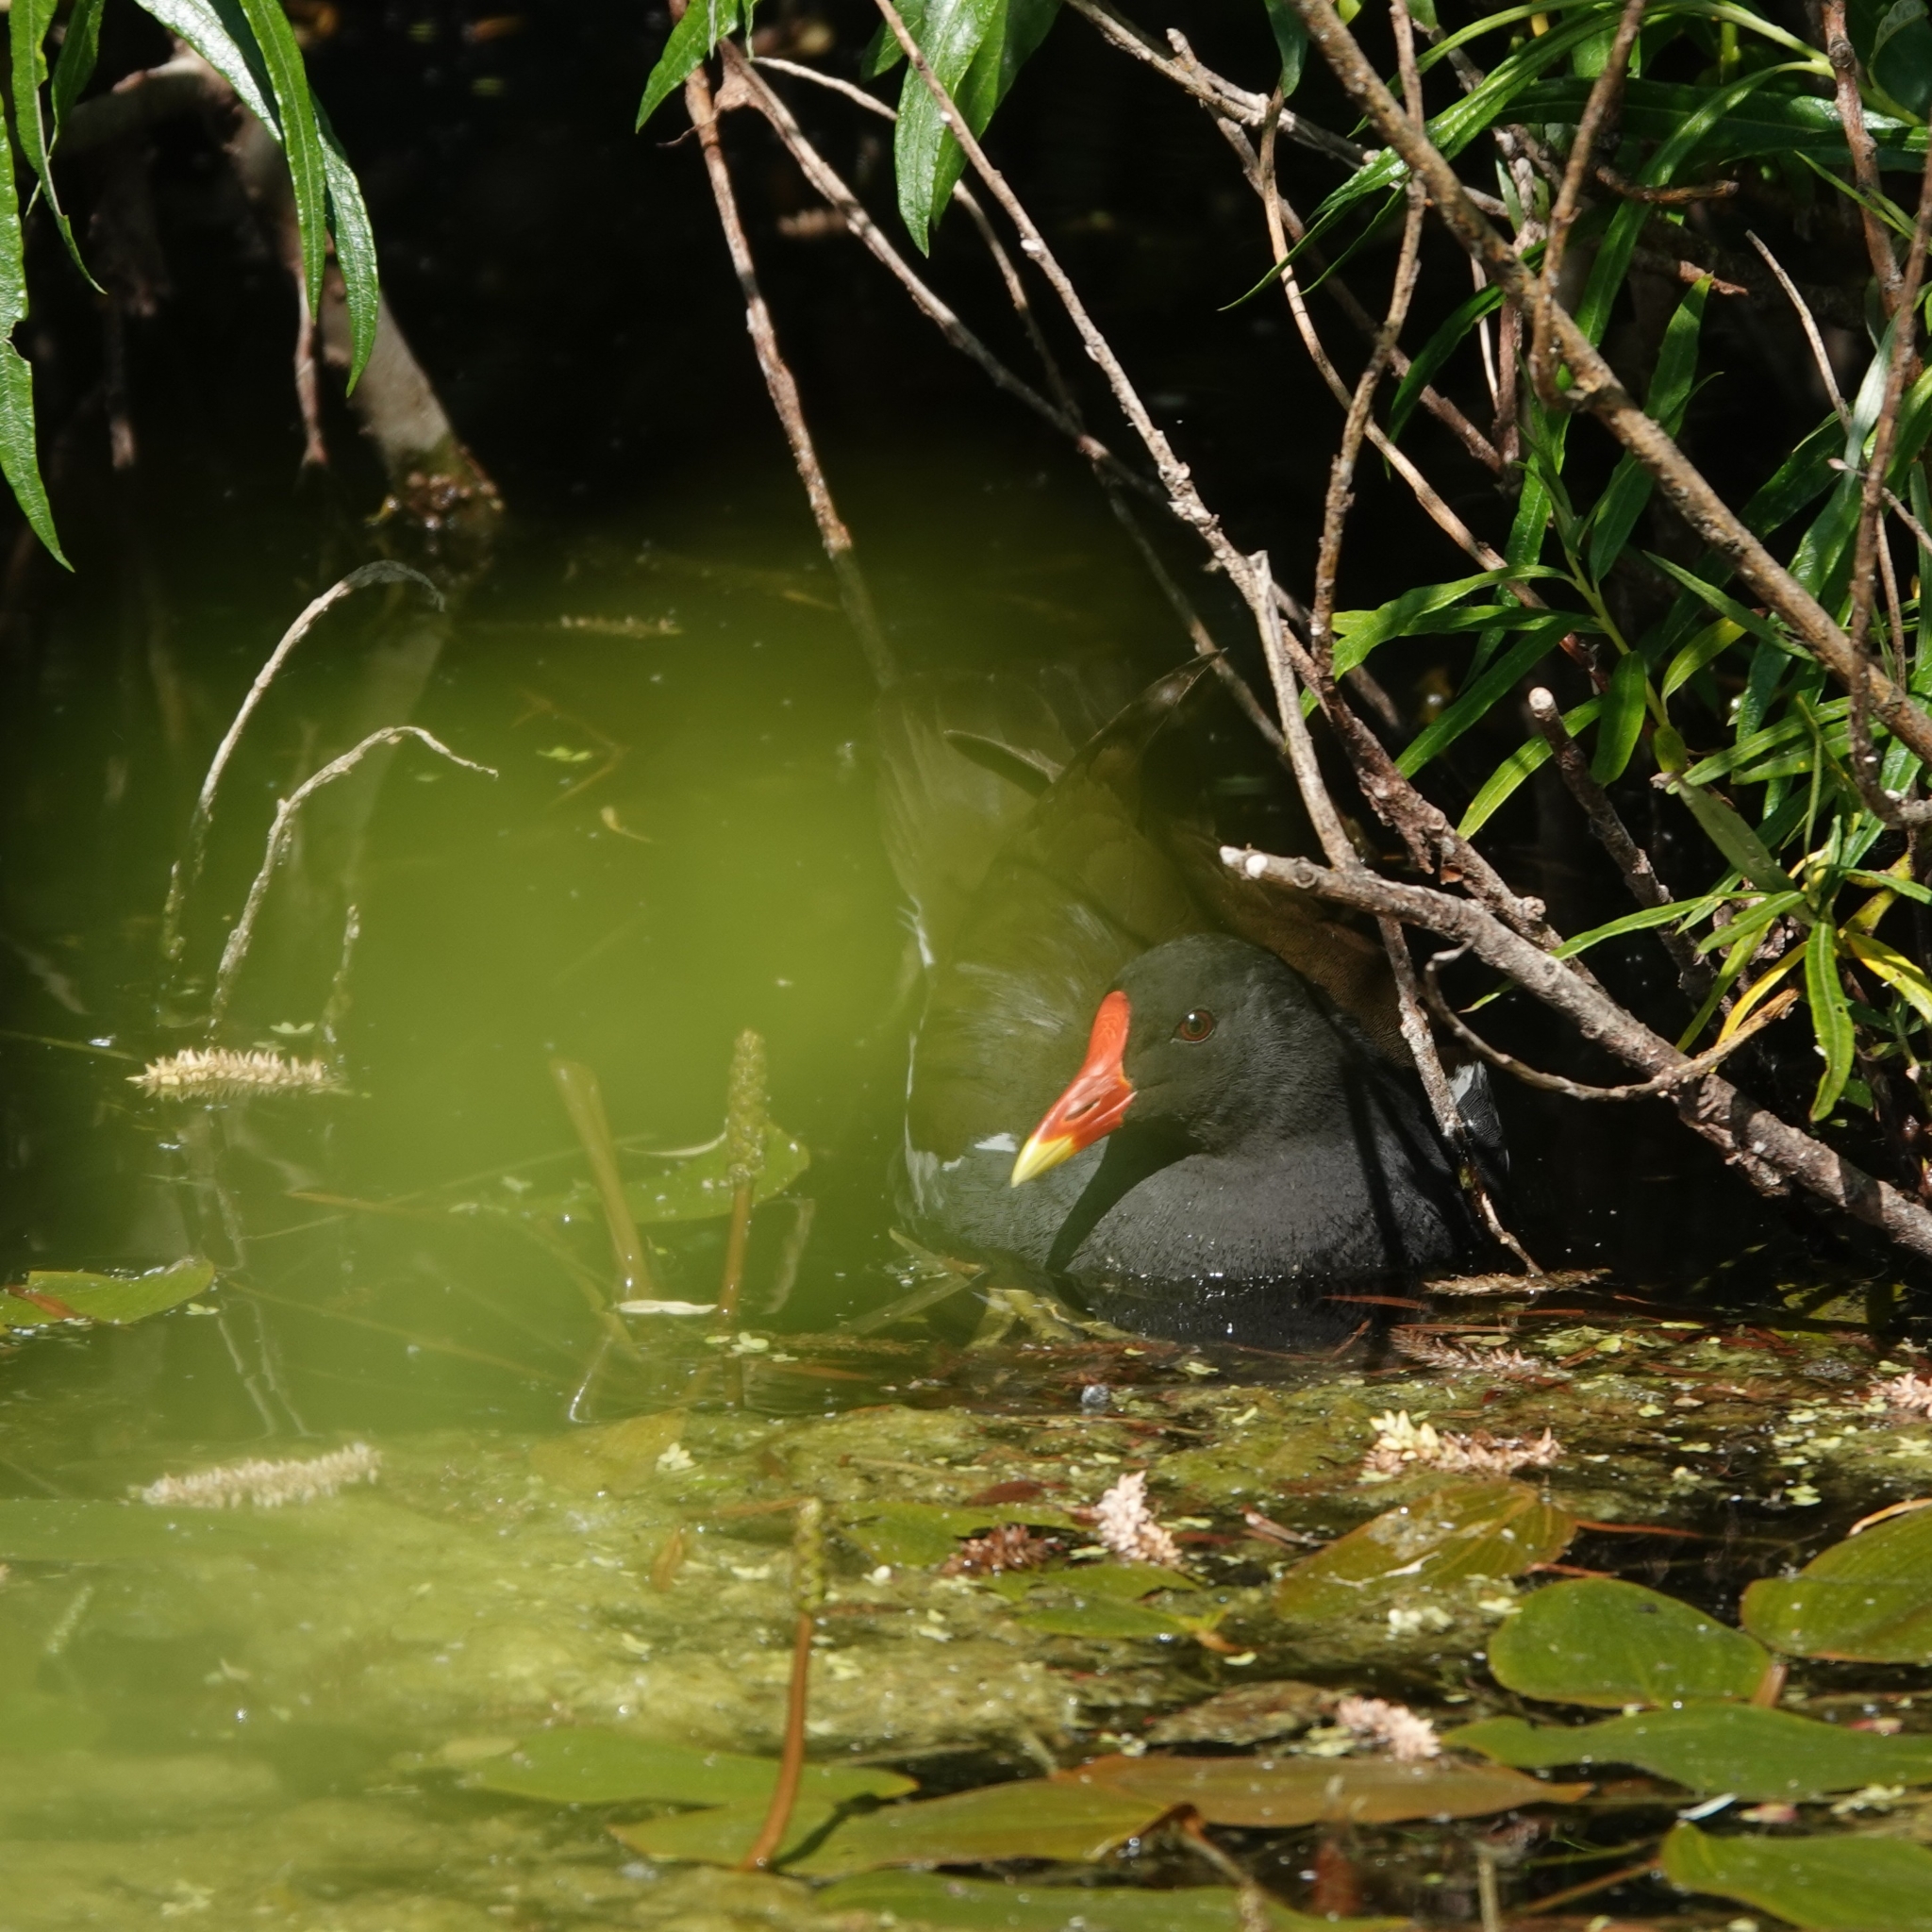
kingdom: Animalia
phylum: Chordata
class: Aves
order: Gruiformes
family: Rallidae
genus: Gallinula
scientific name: Gallinula chloropus
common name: Common moorhen
